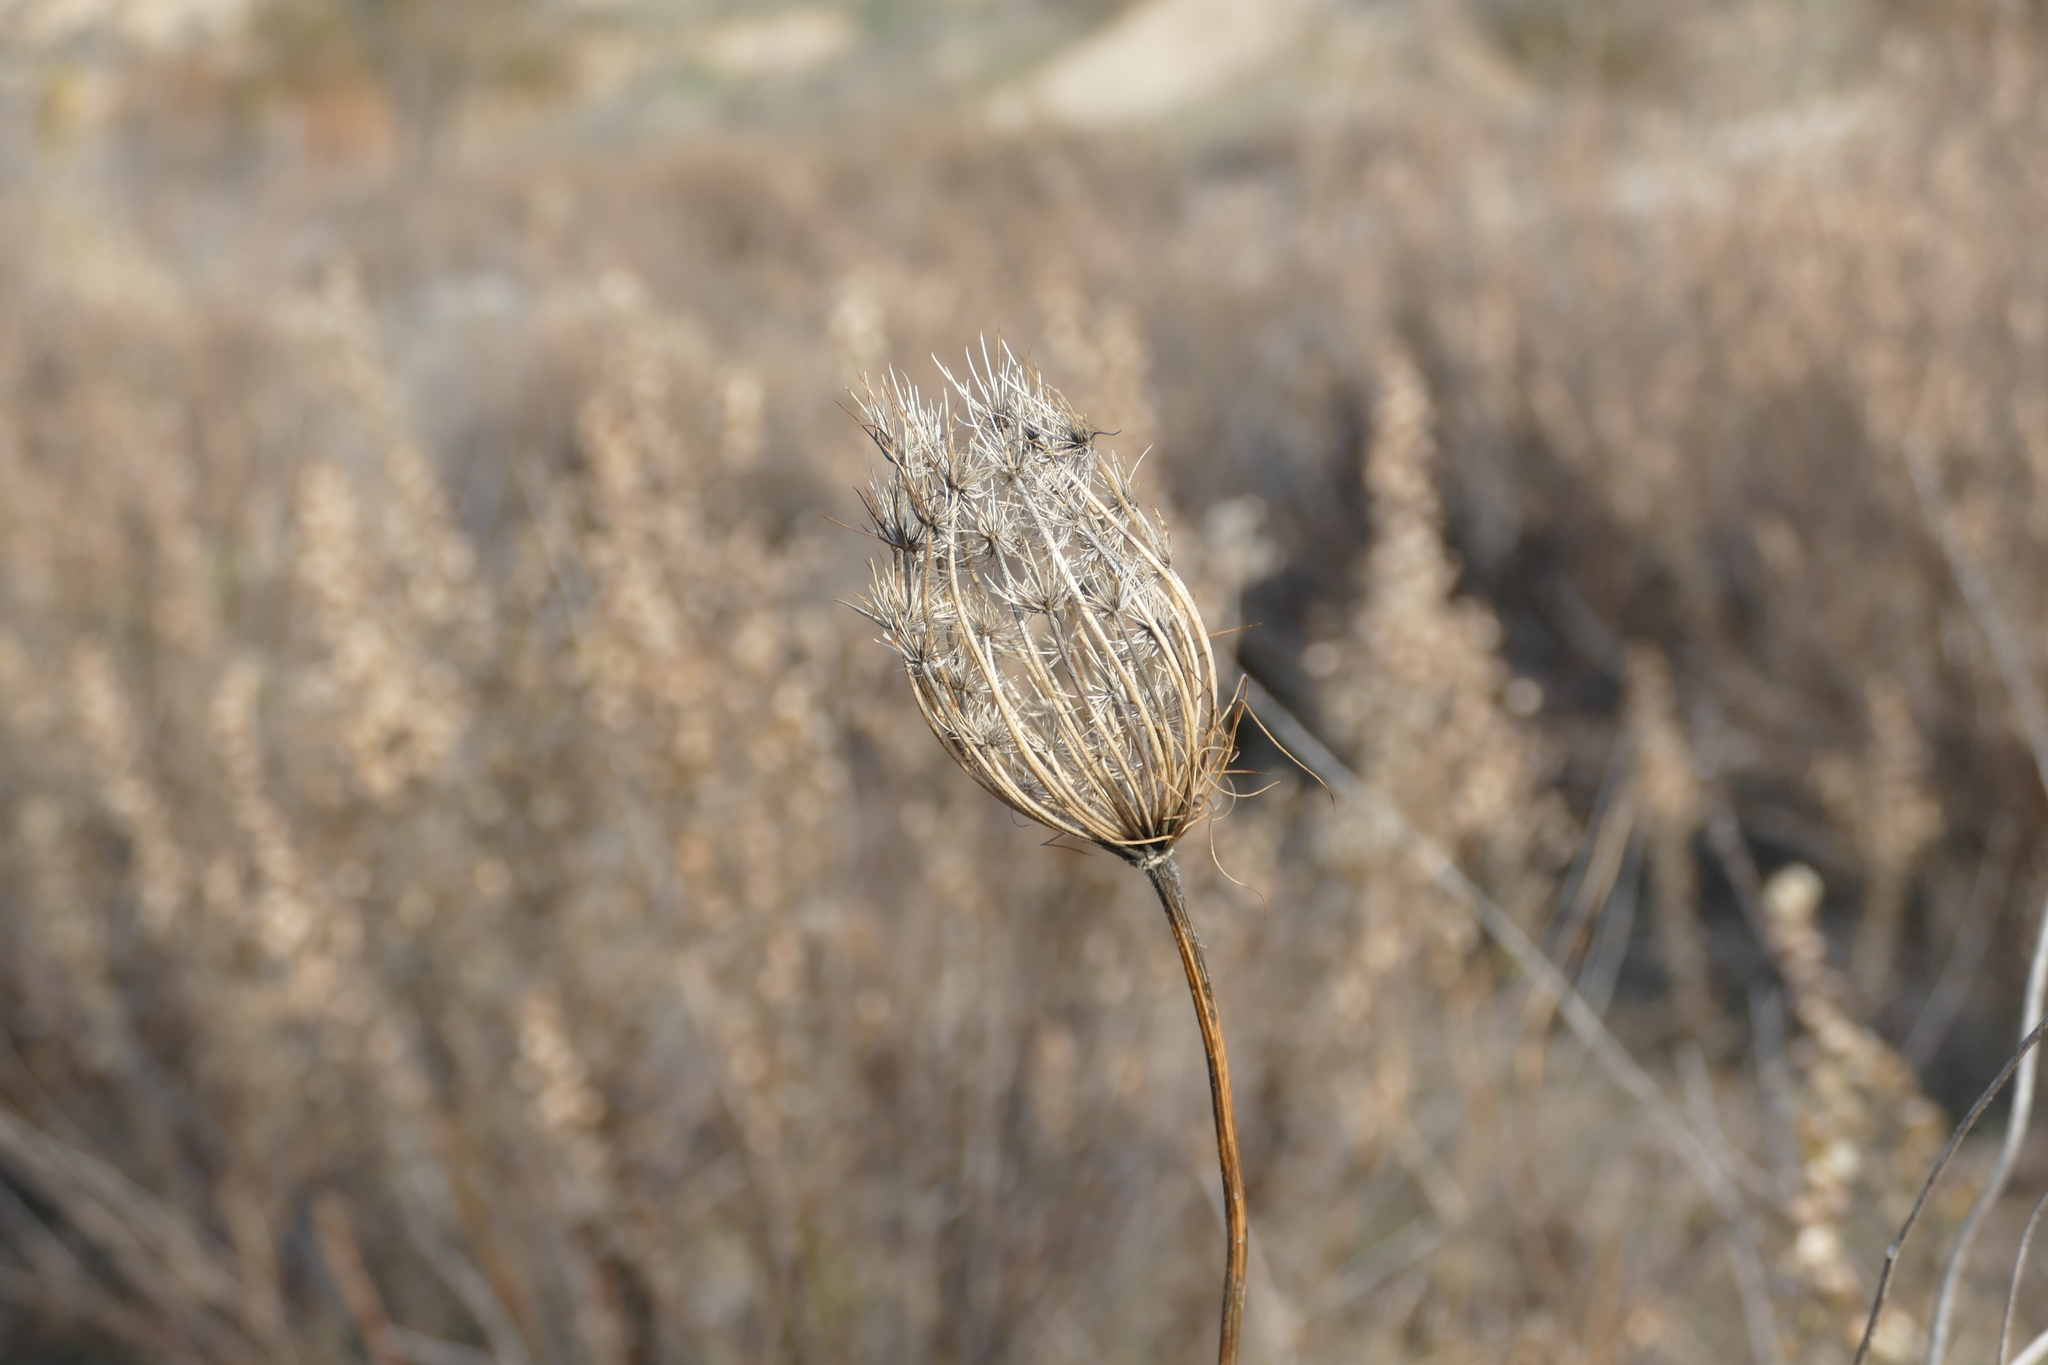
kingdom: Plantae
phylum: Tracheophyta
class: Magnoliopsida
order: Apiales
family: Apiaceae
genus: Daucus
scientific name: Daucus carota
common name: Wild carrot
